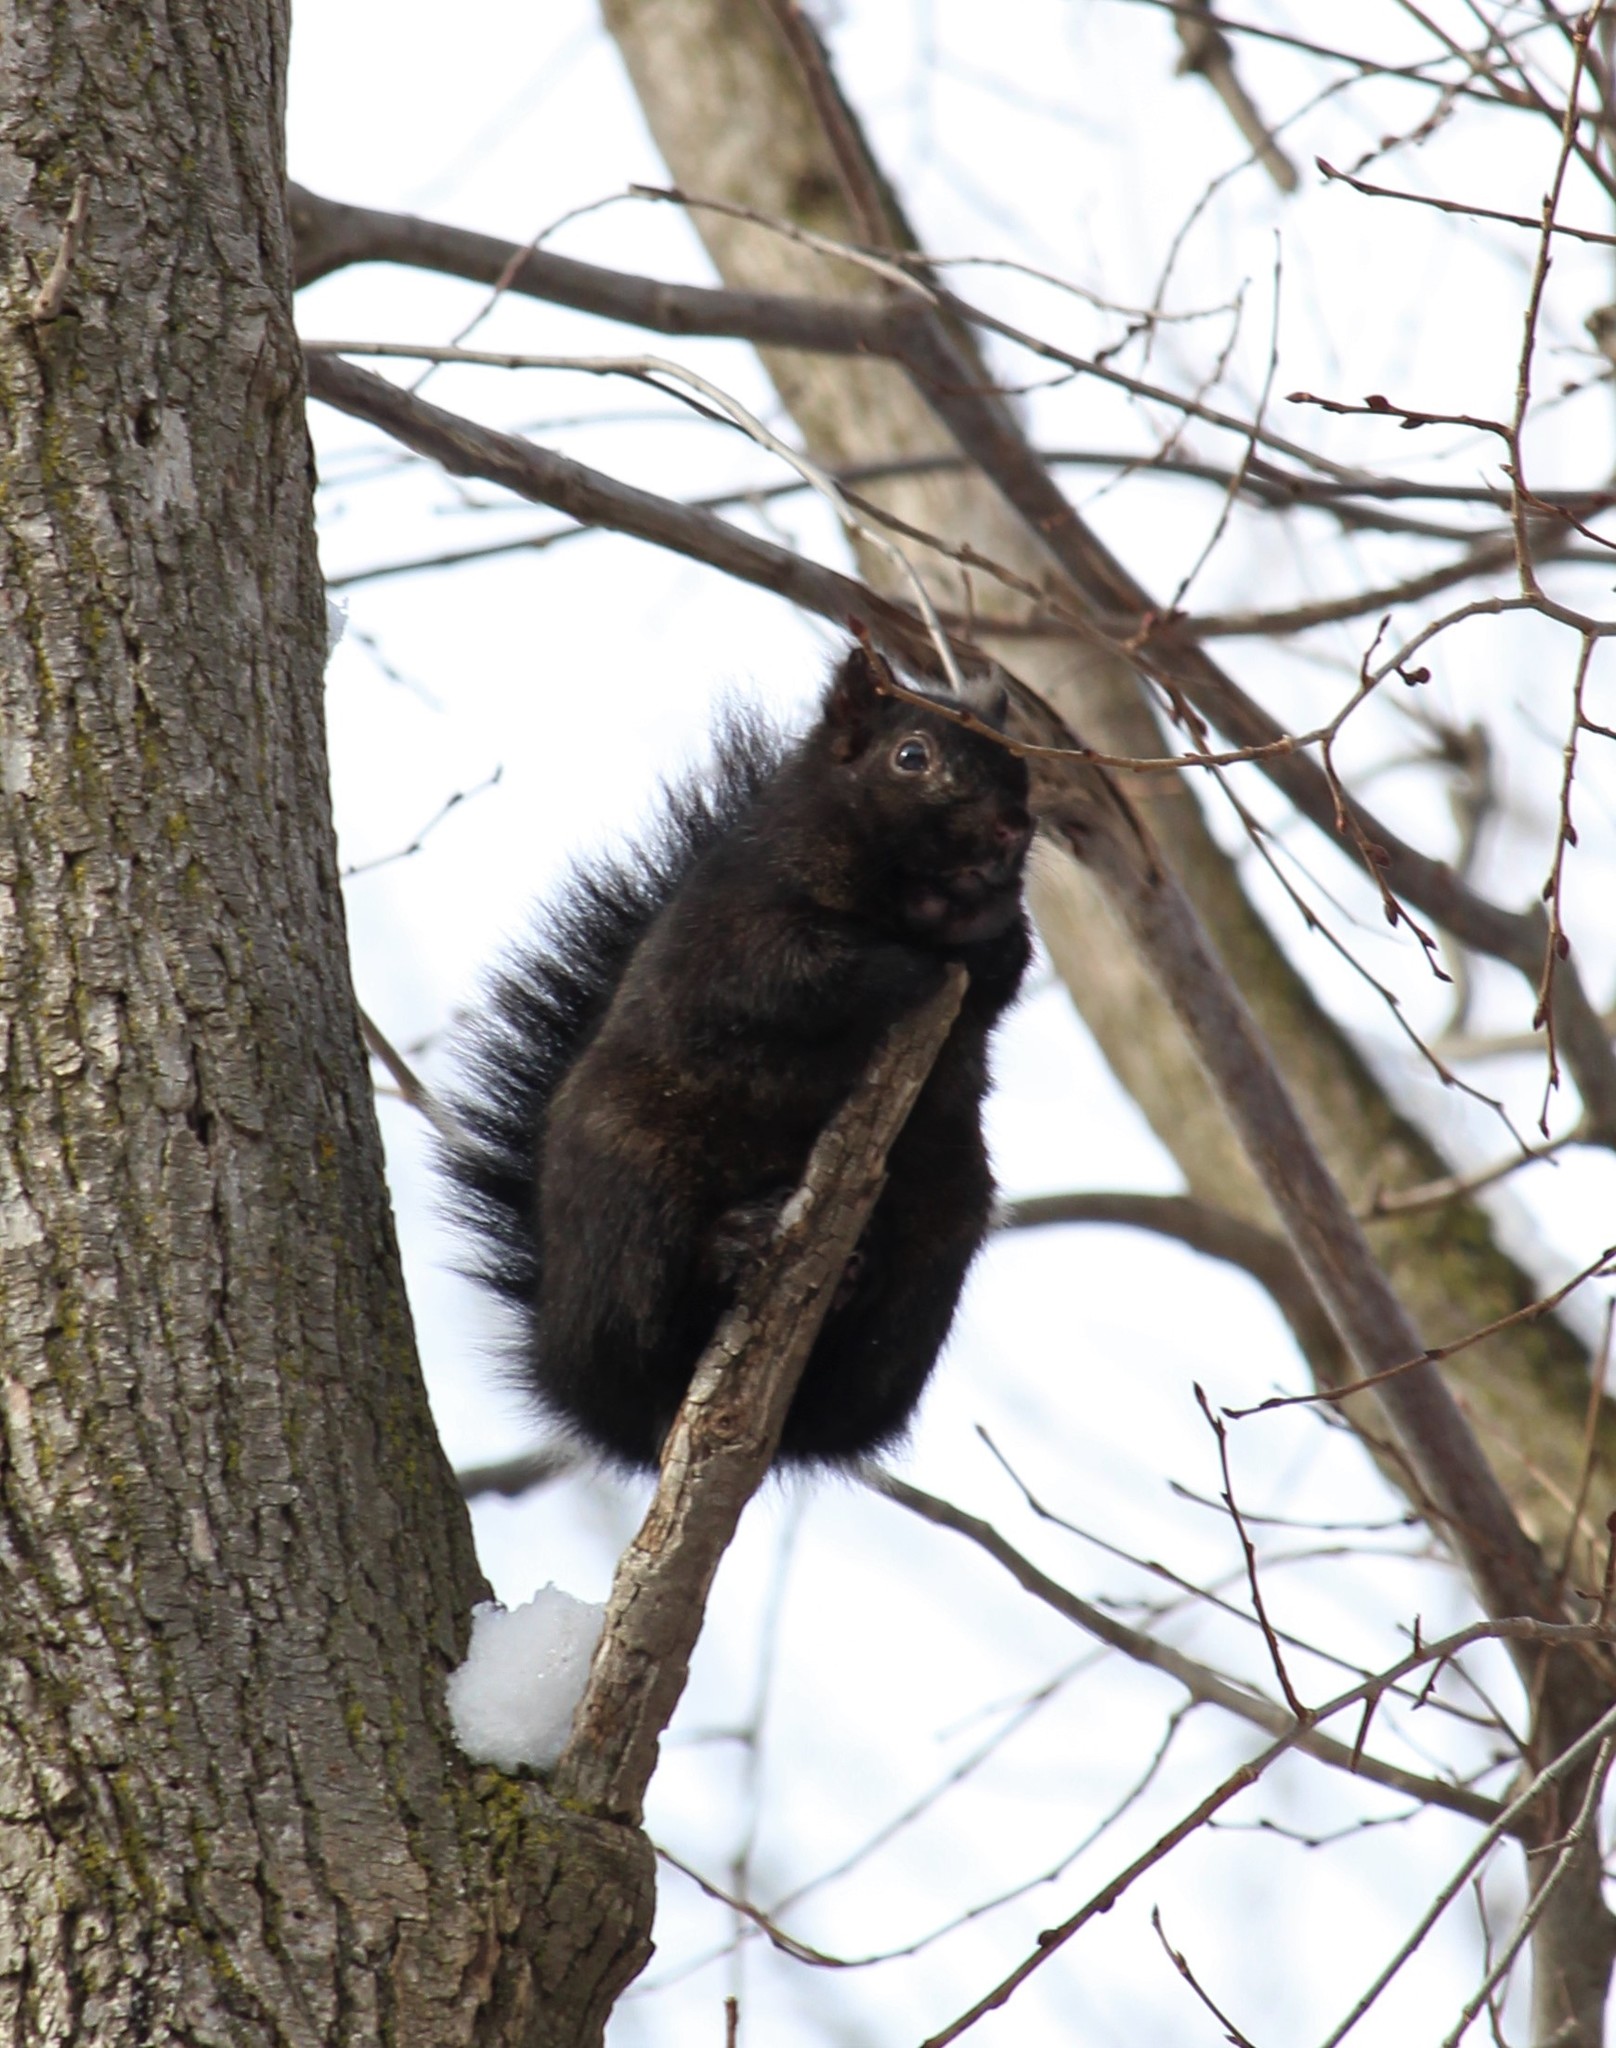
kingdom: Animalia
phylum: Chordata
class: Mammalia
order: Rodentia
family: Sciuridae
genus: Sciurus
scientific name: Sciurus carolinensis
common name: Eastern gray squirrel
